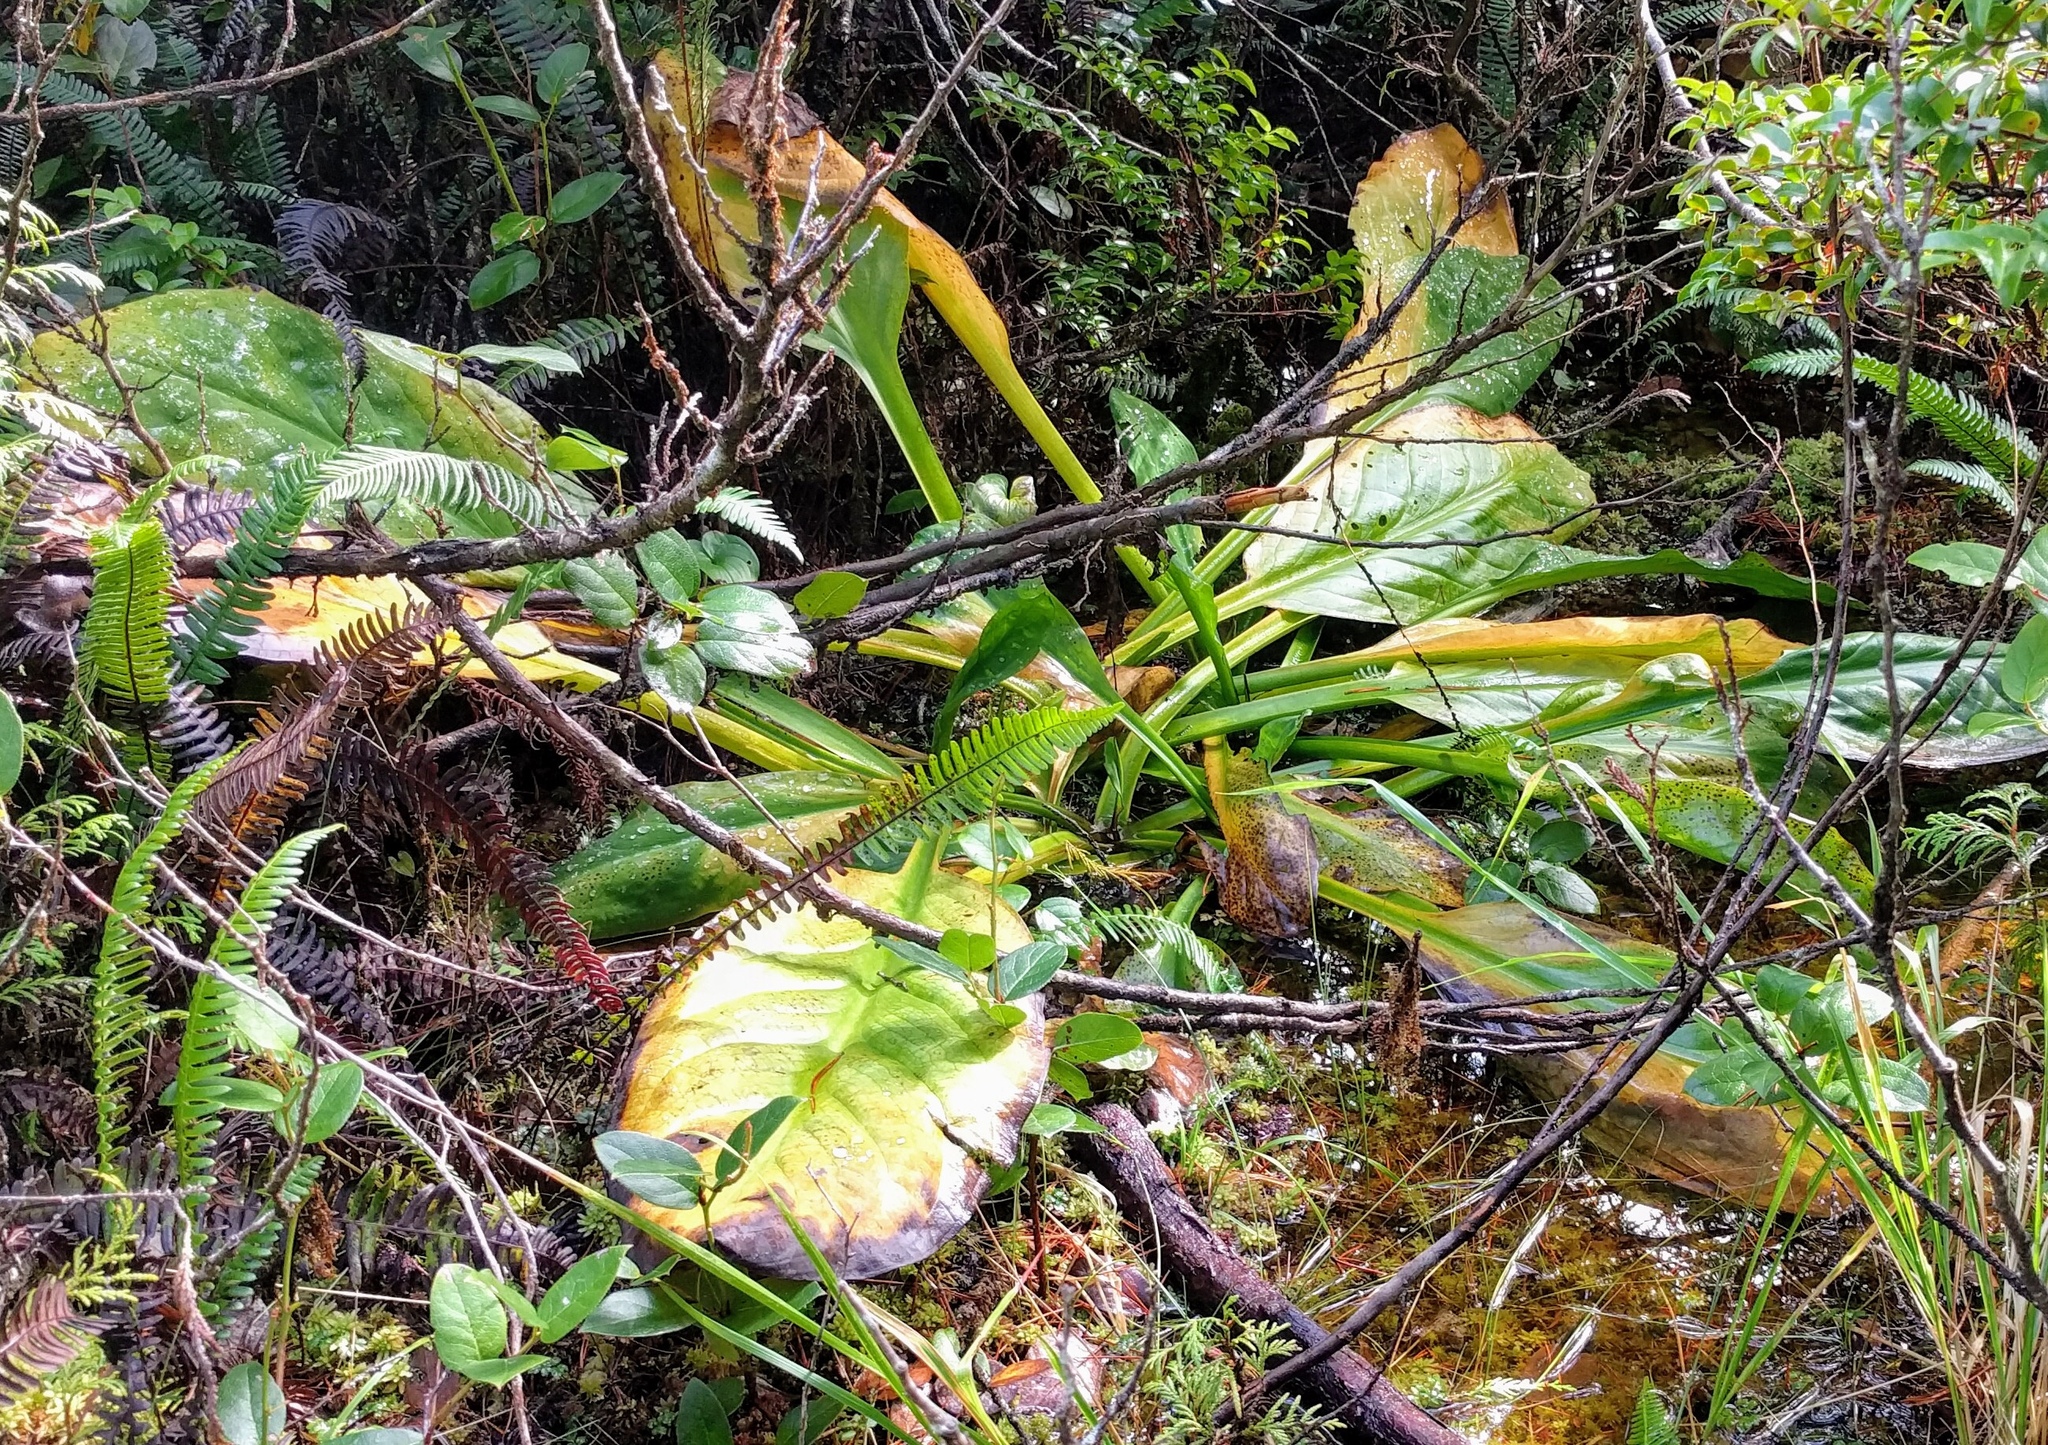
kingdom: Plantae
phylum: Tracheophyta
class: Liliopsida
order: Alismatales
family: Araceae
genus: Lysichiton
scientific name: Lysichiton americanus
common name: American skunk cabbage
